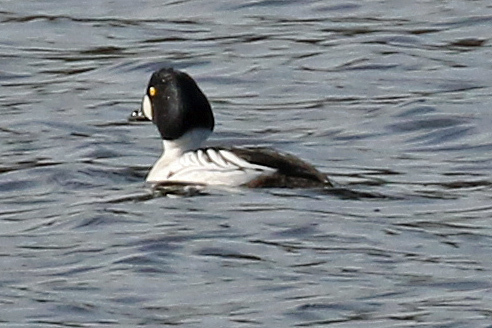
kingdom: Animalia
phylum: Chordata
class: Aves
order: Anseriformes
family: Anatidae
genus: Bucephala
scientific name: Bucephala clangula
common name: Common goldeneye
